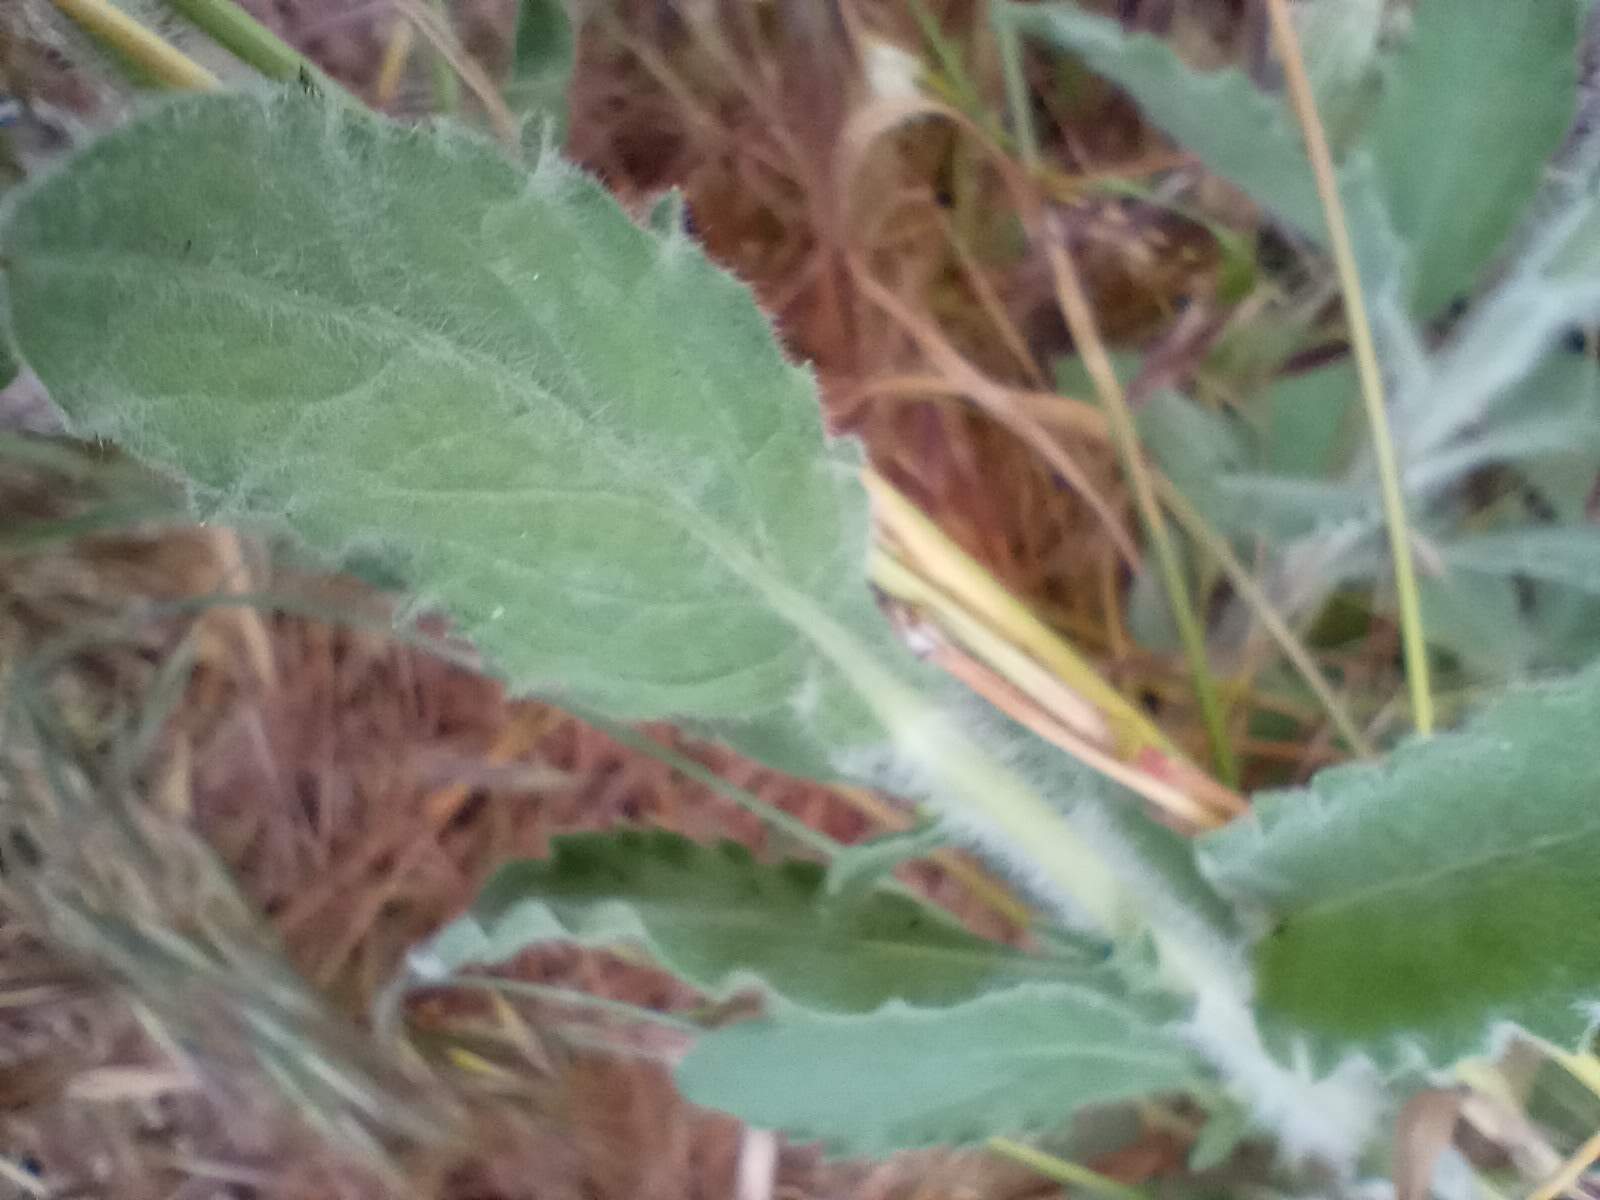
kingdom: Plantae
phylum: Tracheophyta
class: Magnoliopsida
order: Asterales
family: Asteraceae
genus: Heterotheca
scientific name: Heterotheca grandiflora
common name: Telegraphweed
